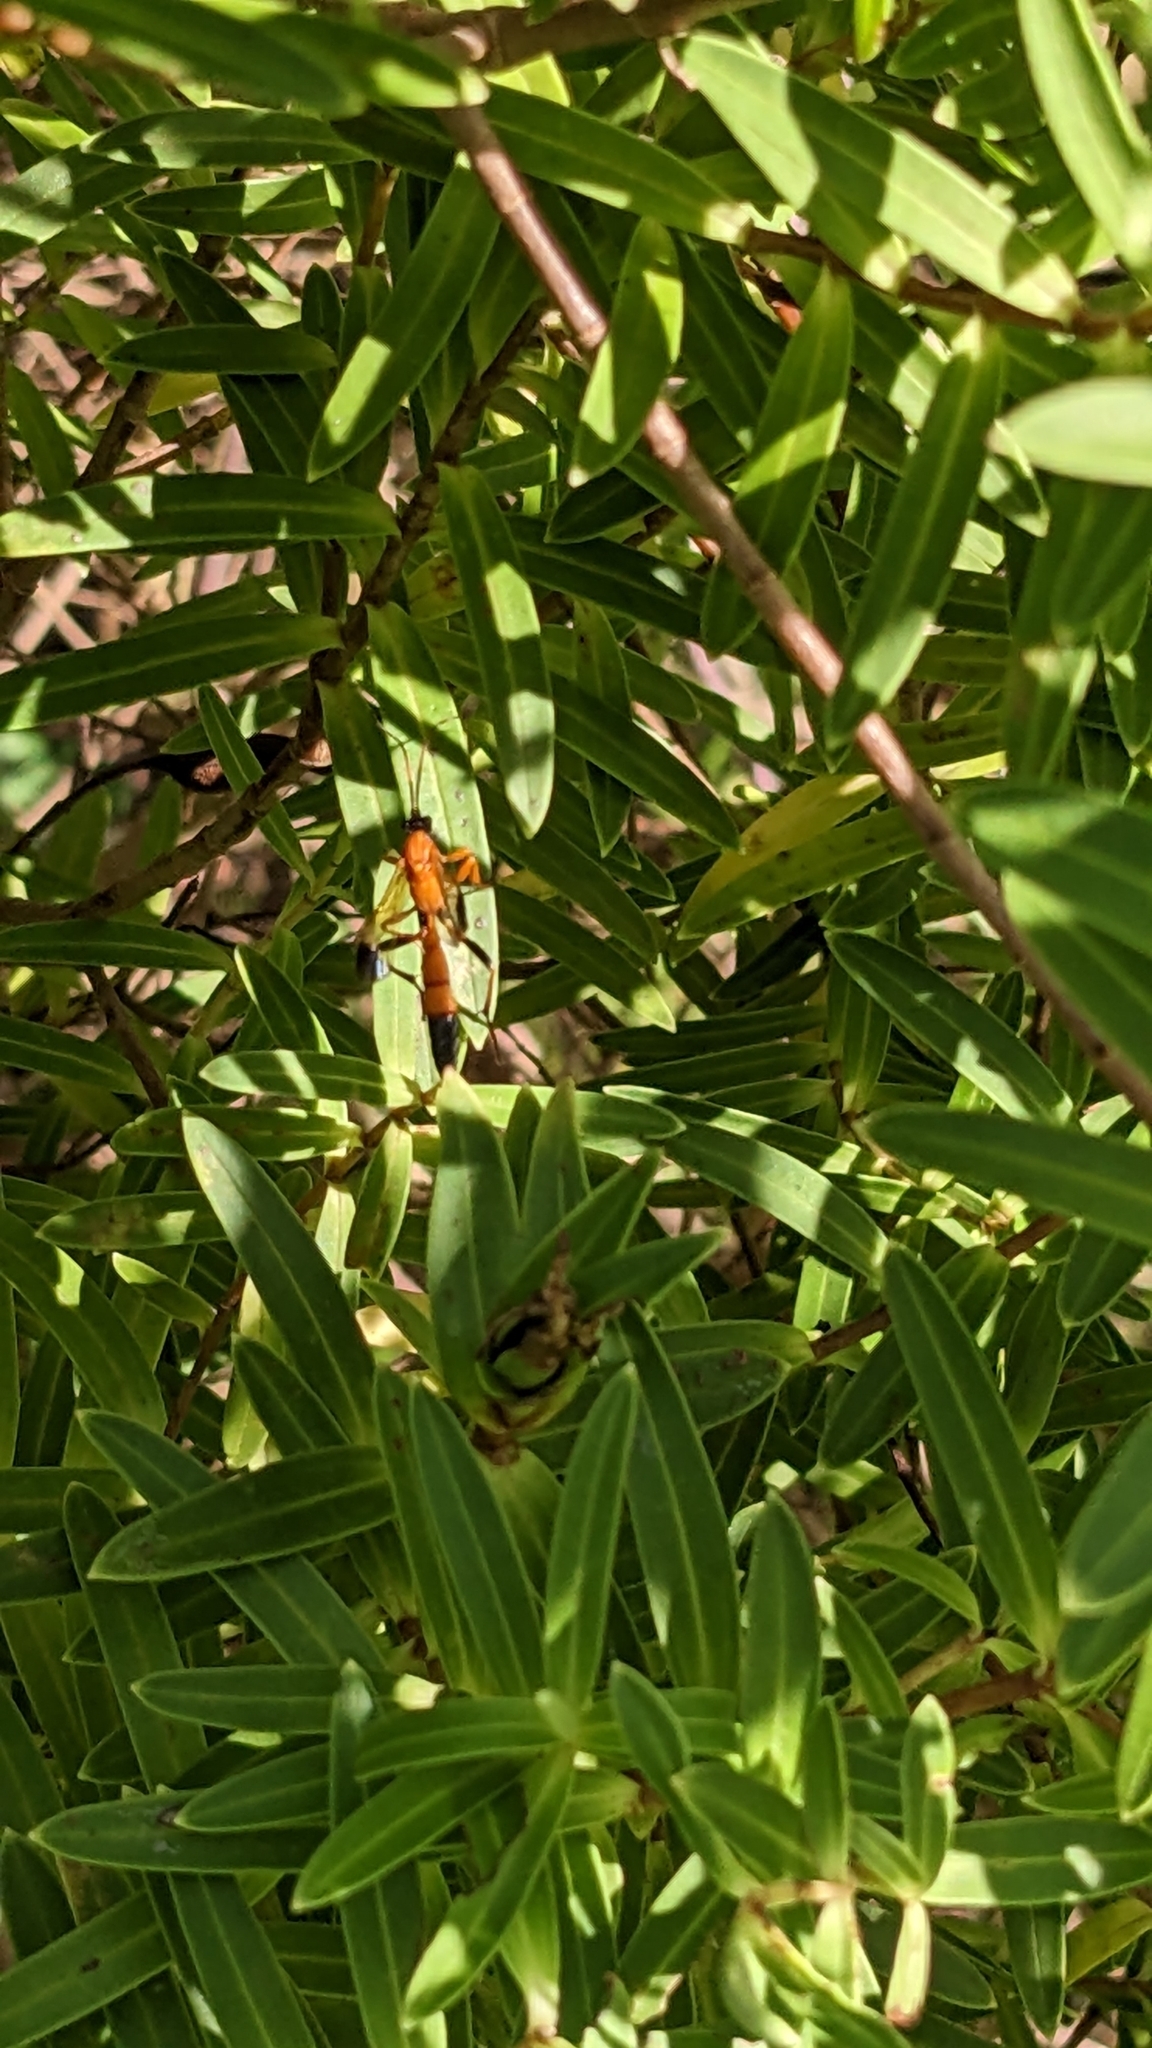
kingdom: Animalia
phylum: Arthropoda
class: Insecta
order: Hymenoptera
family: Ichneumonidae
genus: Ctenochares
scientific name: Ctenochares bicolorus
